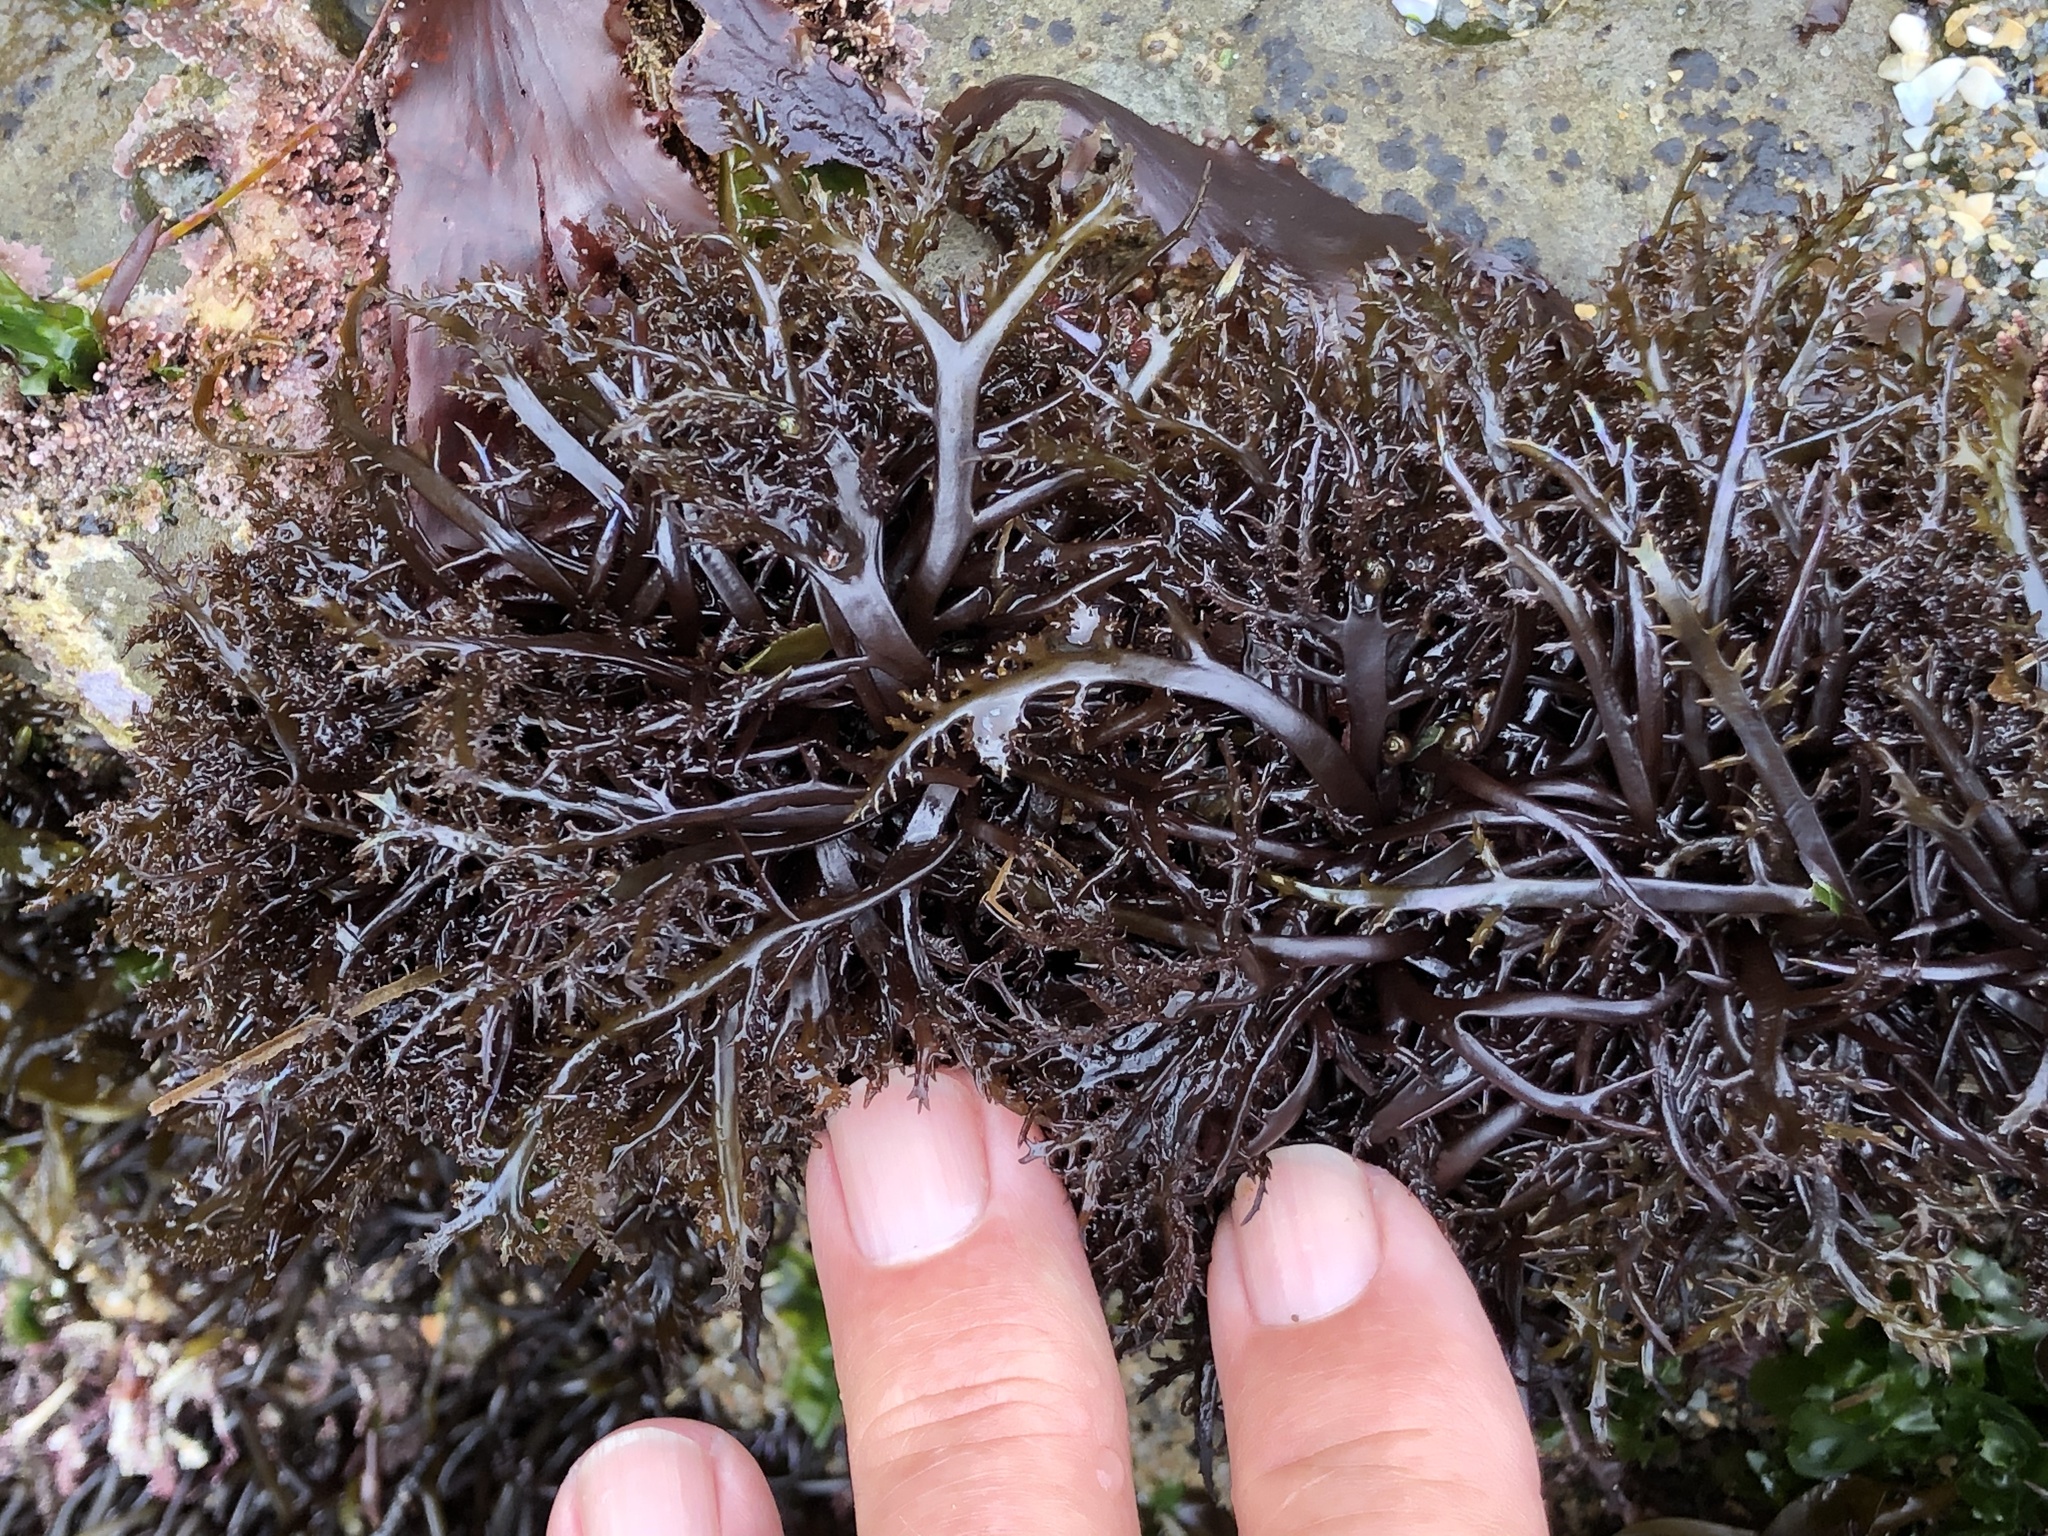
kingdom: Plantae
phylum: Rhodophyta
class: Florideophyceae
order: Gigartinales
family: Gigartinaceae
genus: Chondracanthus
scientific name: Chondracanthus canaliculatus
